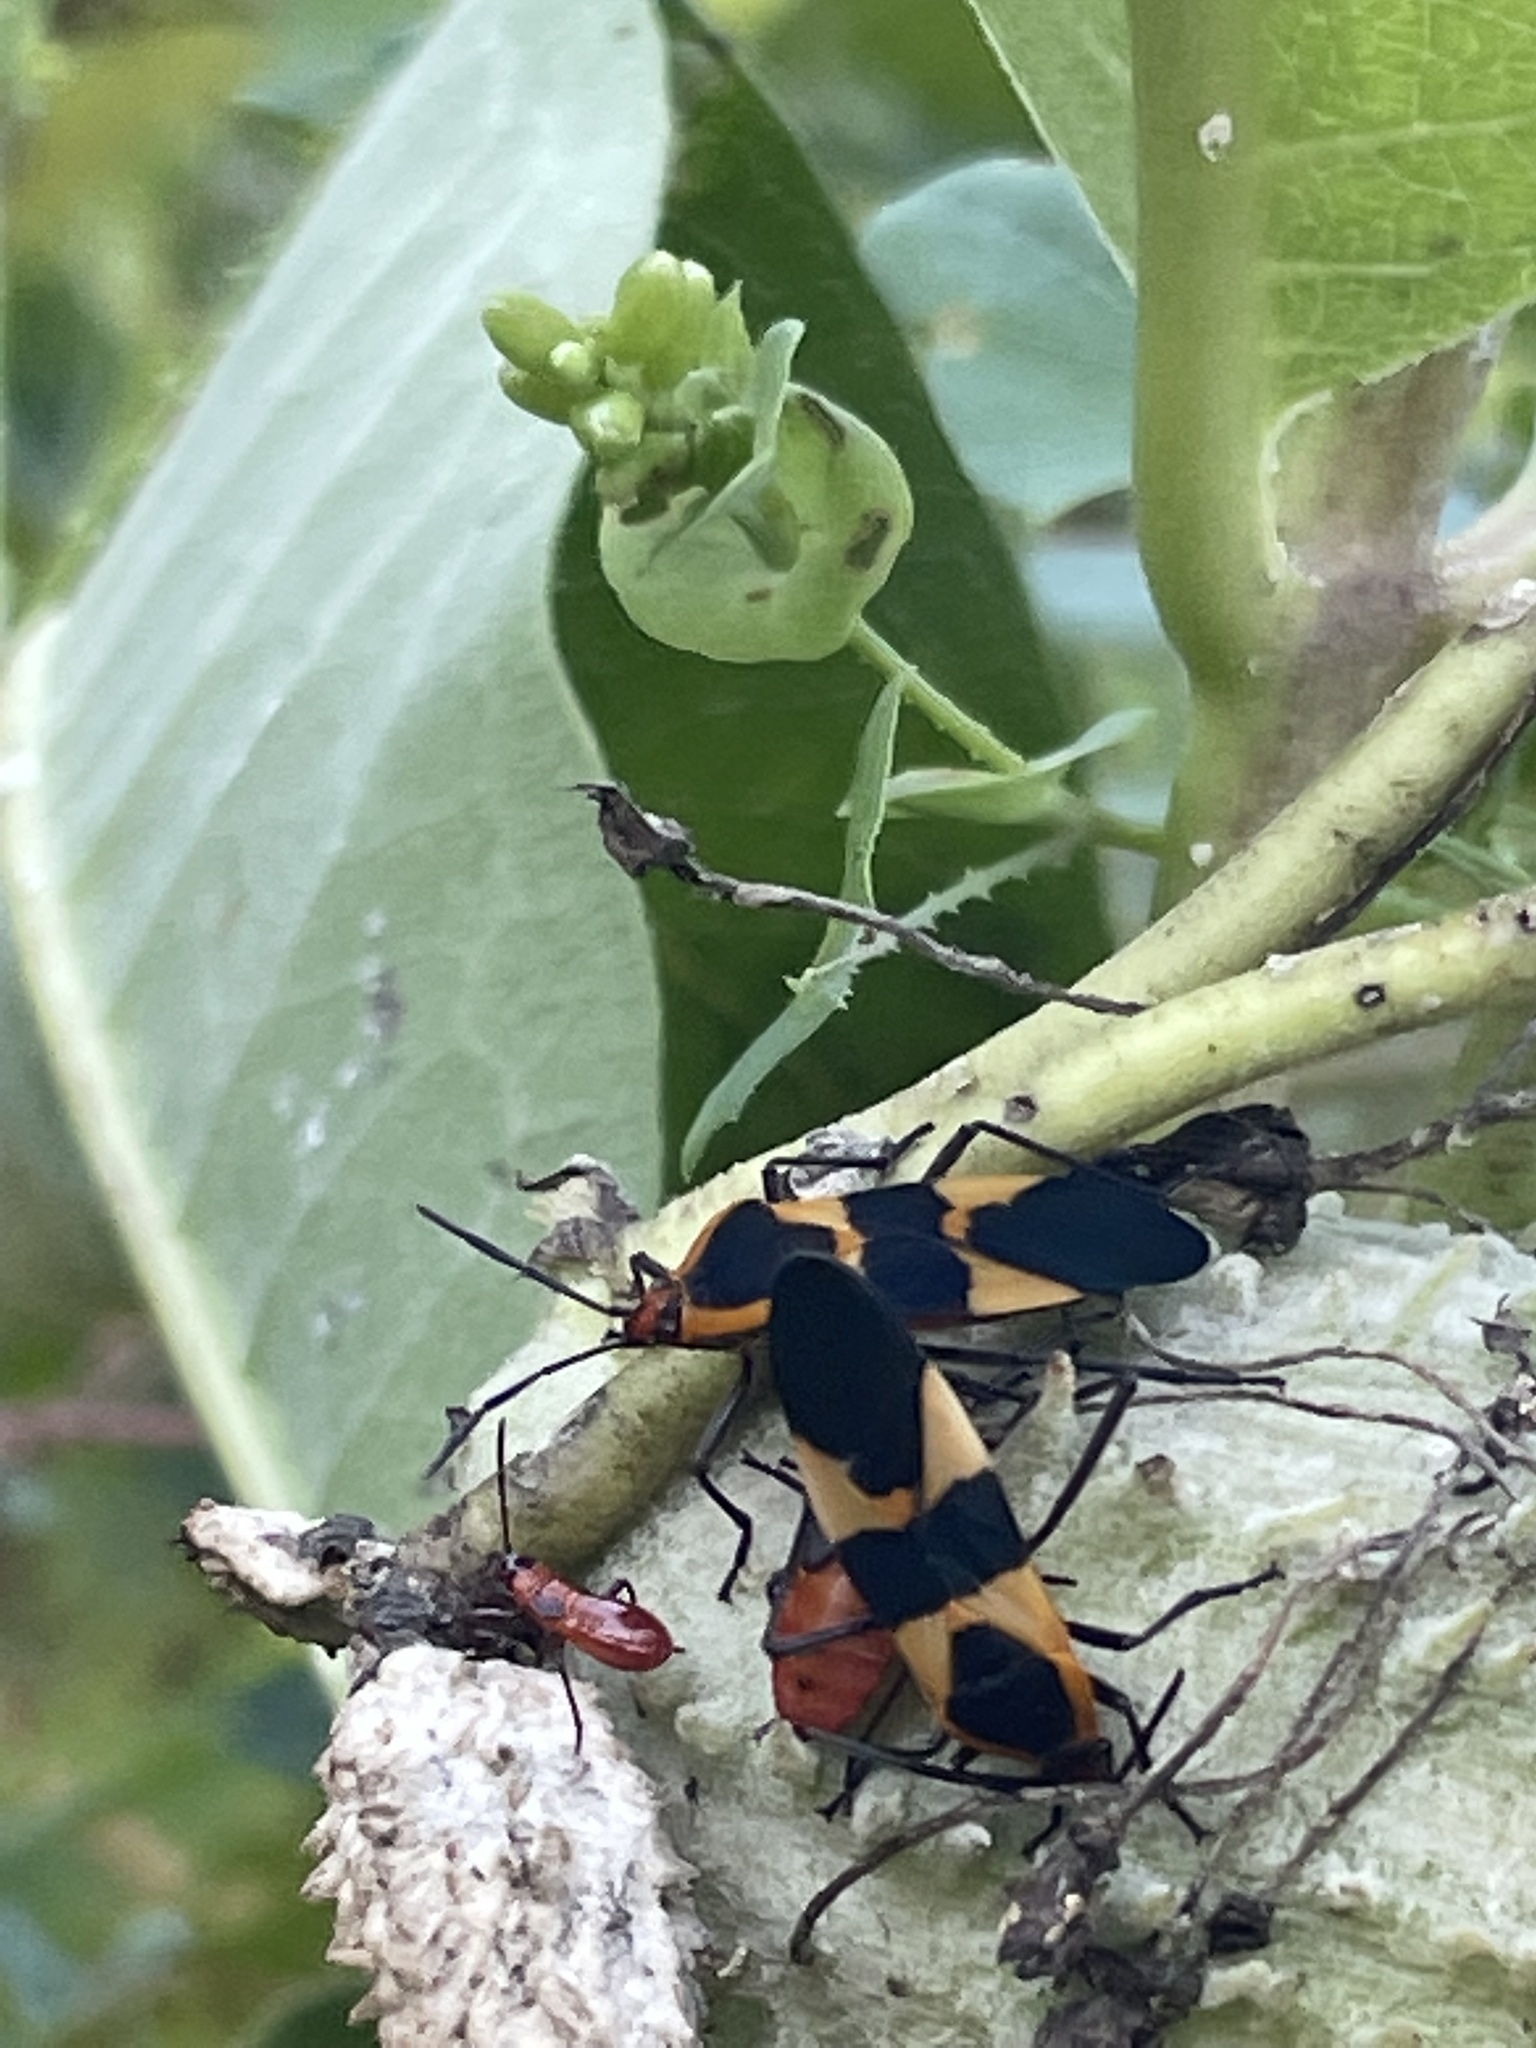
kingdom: Animalia
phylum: Arthropoda
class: Insecta
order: Hemiptera
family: Lygaeidae
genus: Oncopeltus
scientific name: Oncopeltus fasciatus
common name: Large milkweed bug
